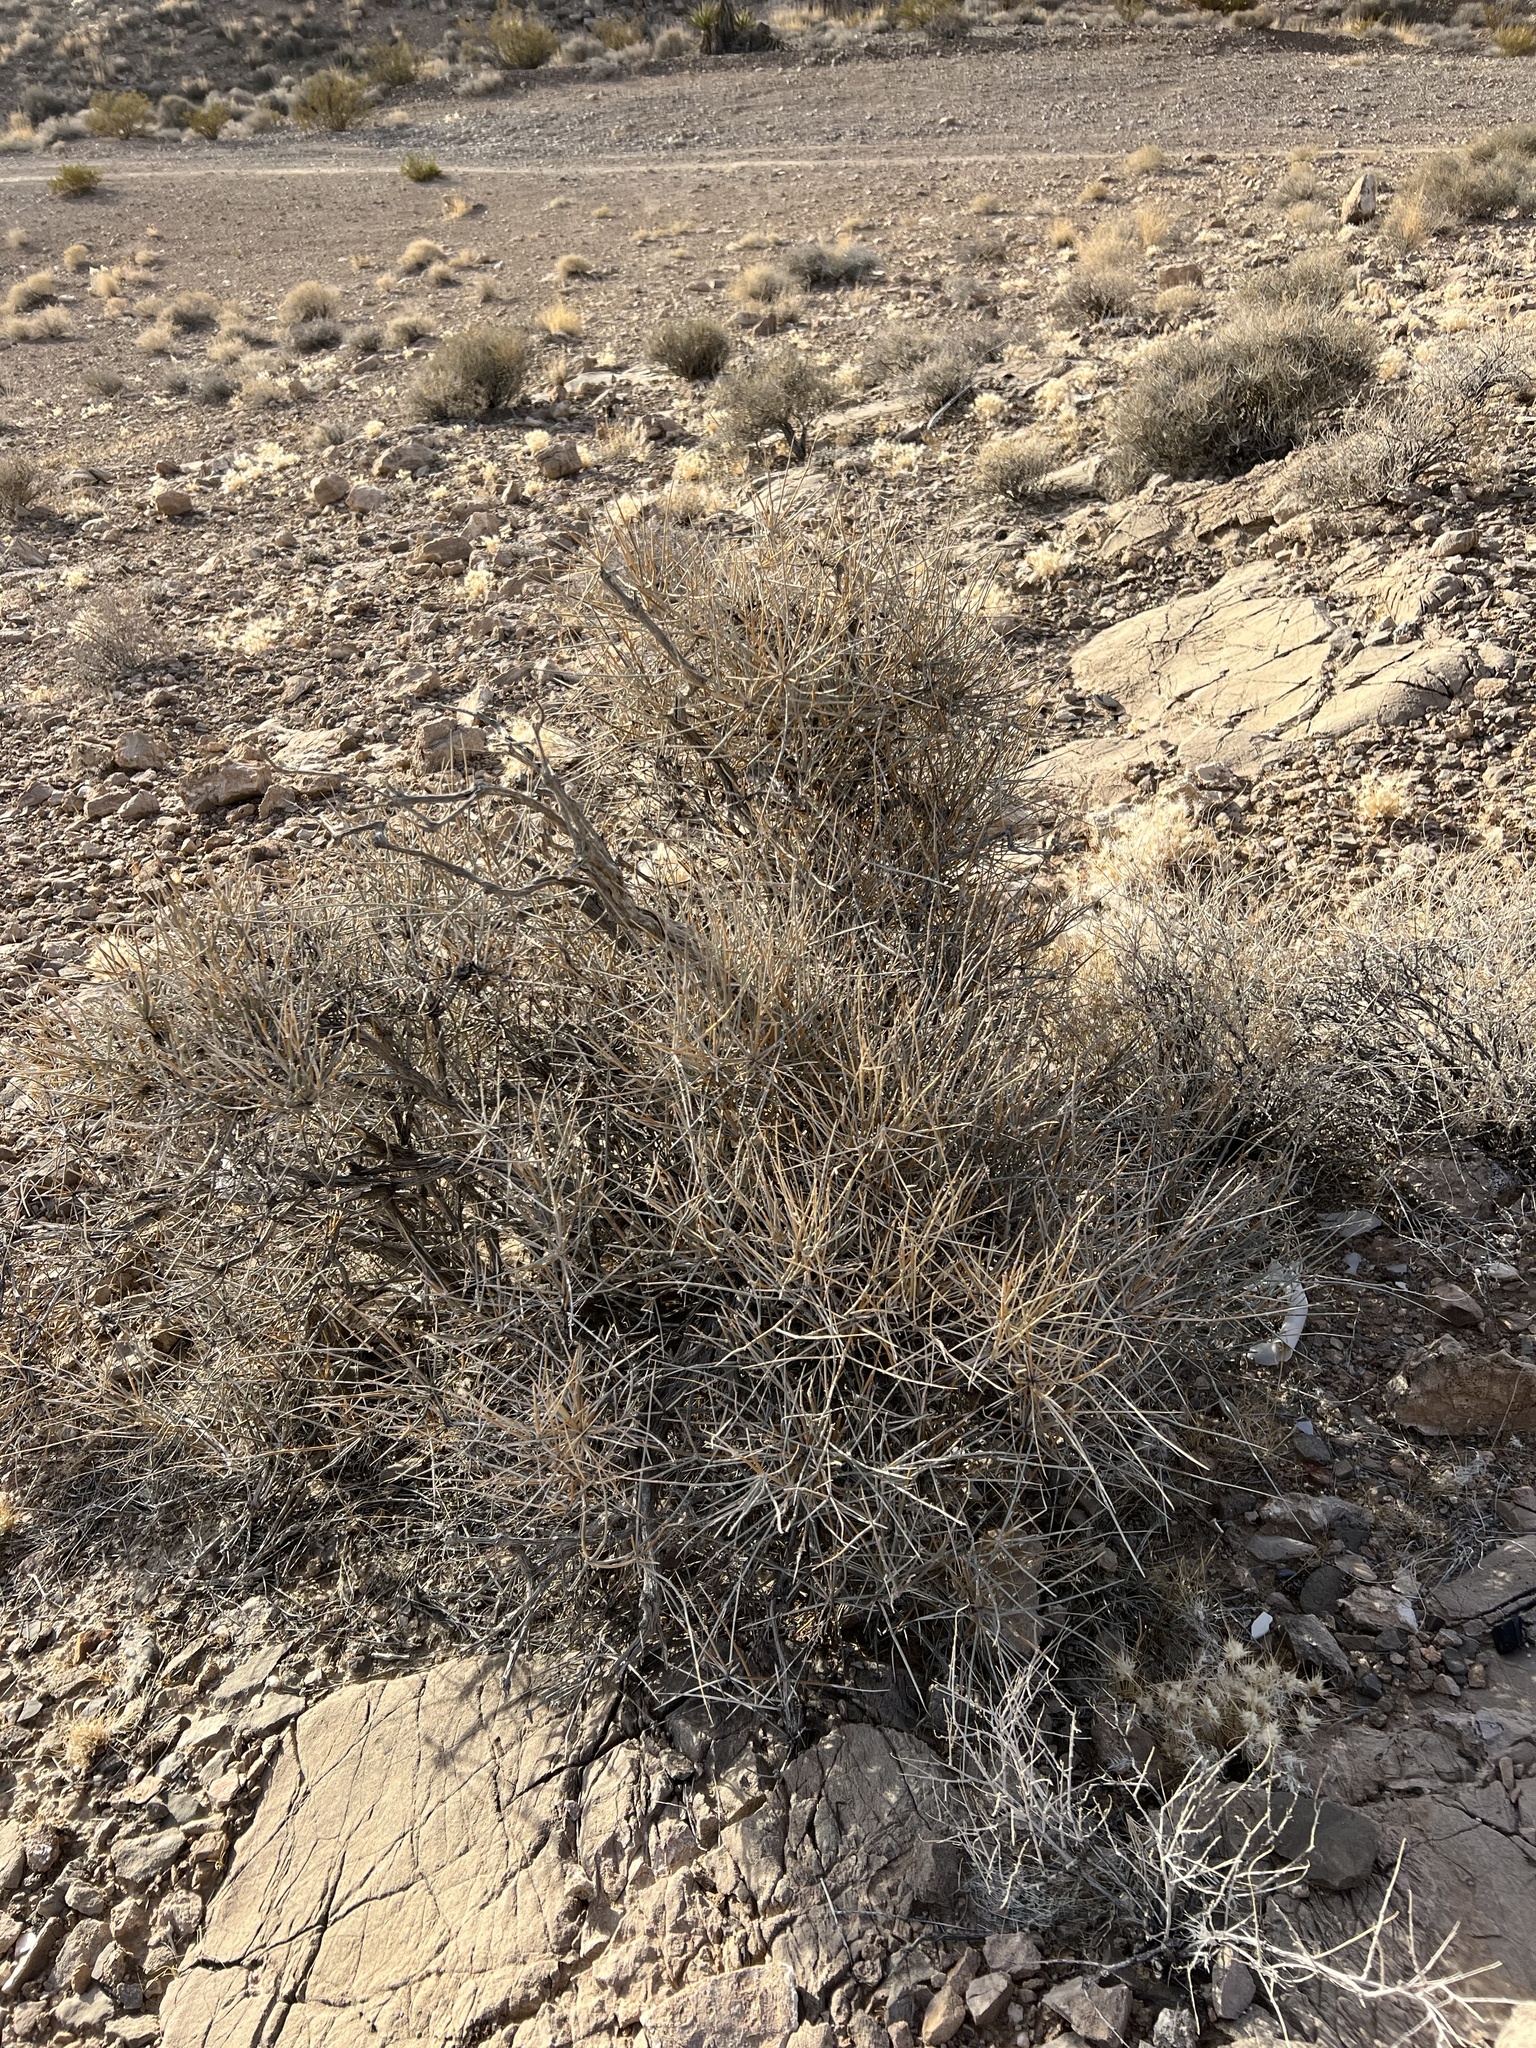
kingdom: Plantae
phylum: Tracheophyta
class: Gnetopsida
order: Ephedrales
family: Ephedraceae
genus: Ephedra
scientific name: Ephedra nevadensis
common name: Gray ephedra
